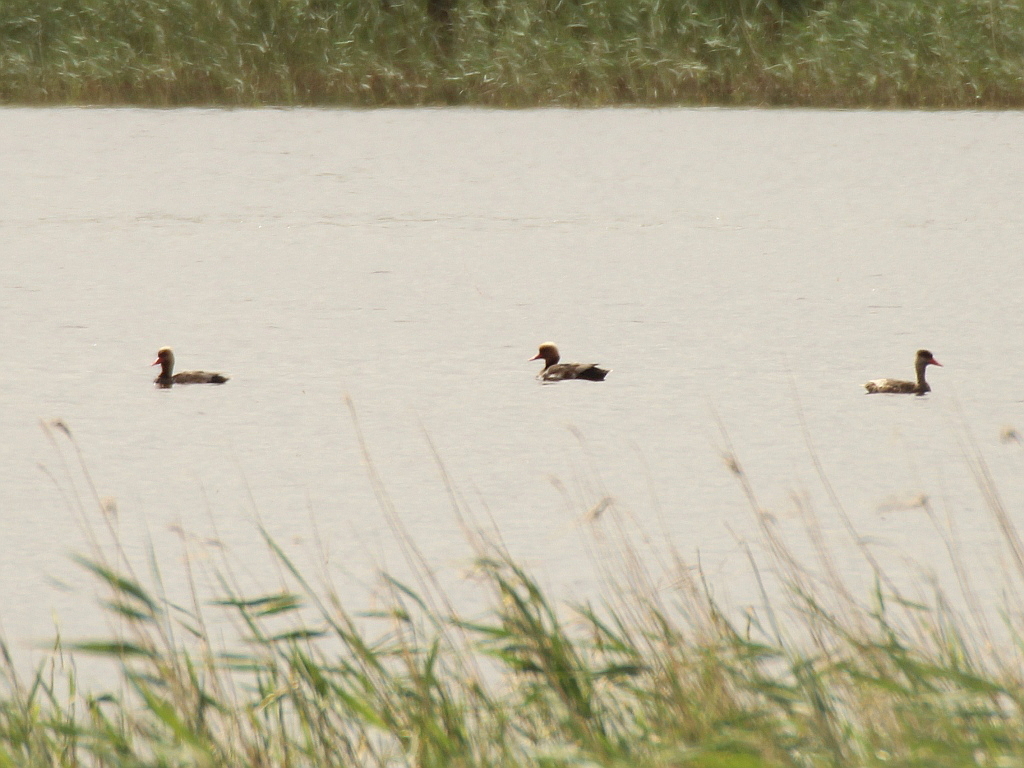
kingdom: Animalia
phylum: Chordata
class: Aves
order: Anseriformes
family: Anatidae
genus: Netta
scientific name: Netta rufina
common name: Red-crested pochard
